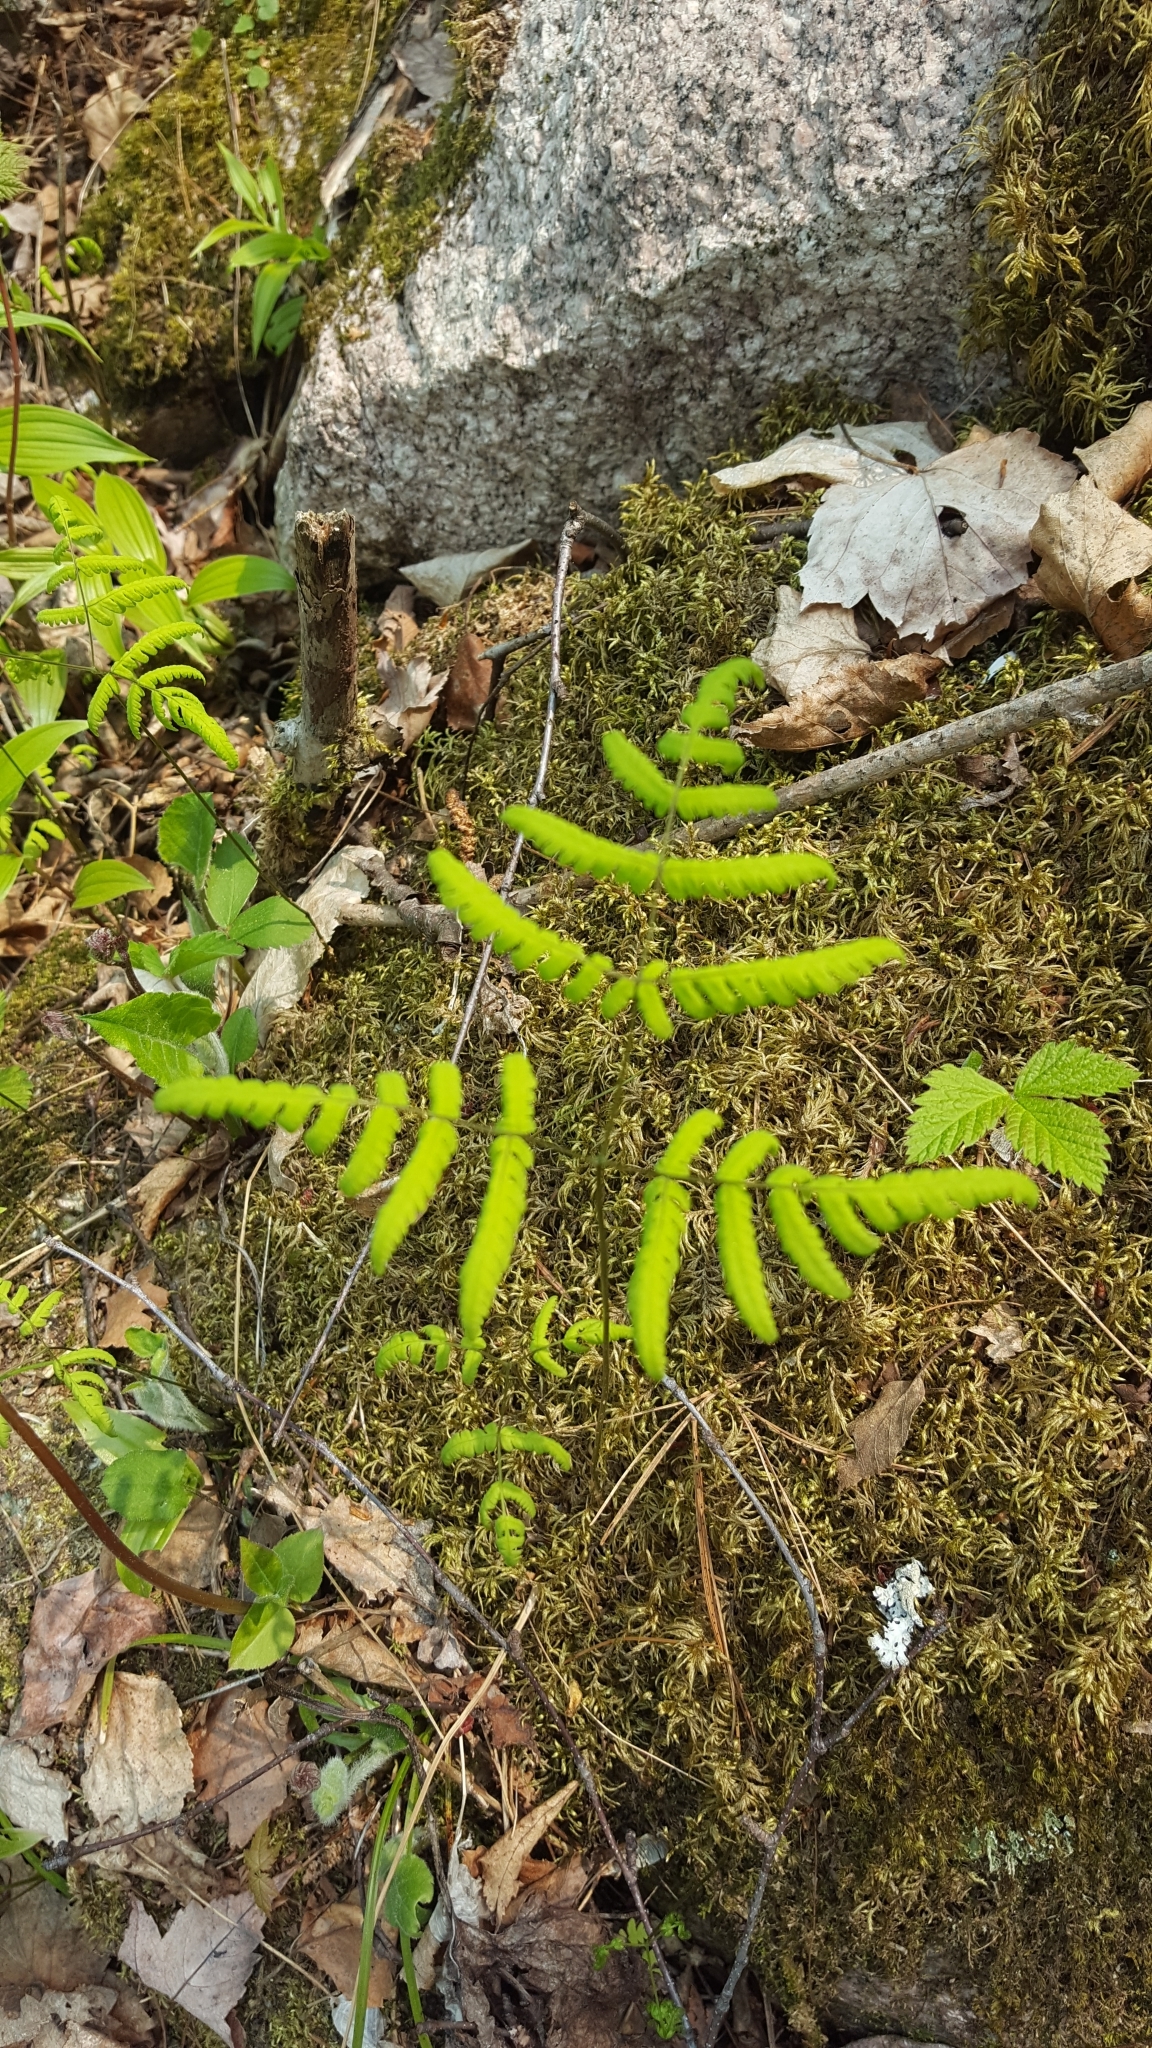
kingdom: Plantae
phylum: Tracheophyta
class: Polypodiopsida
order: Polypodiales
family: Cystopteridaceae
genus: Gymnocarpium
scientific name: Gymnocarpium dryopteris
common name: Oak fern
